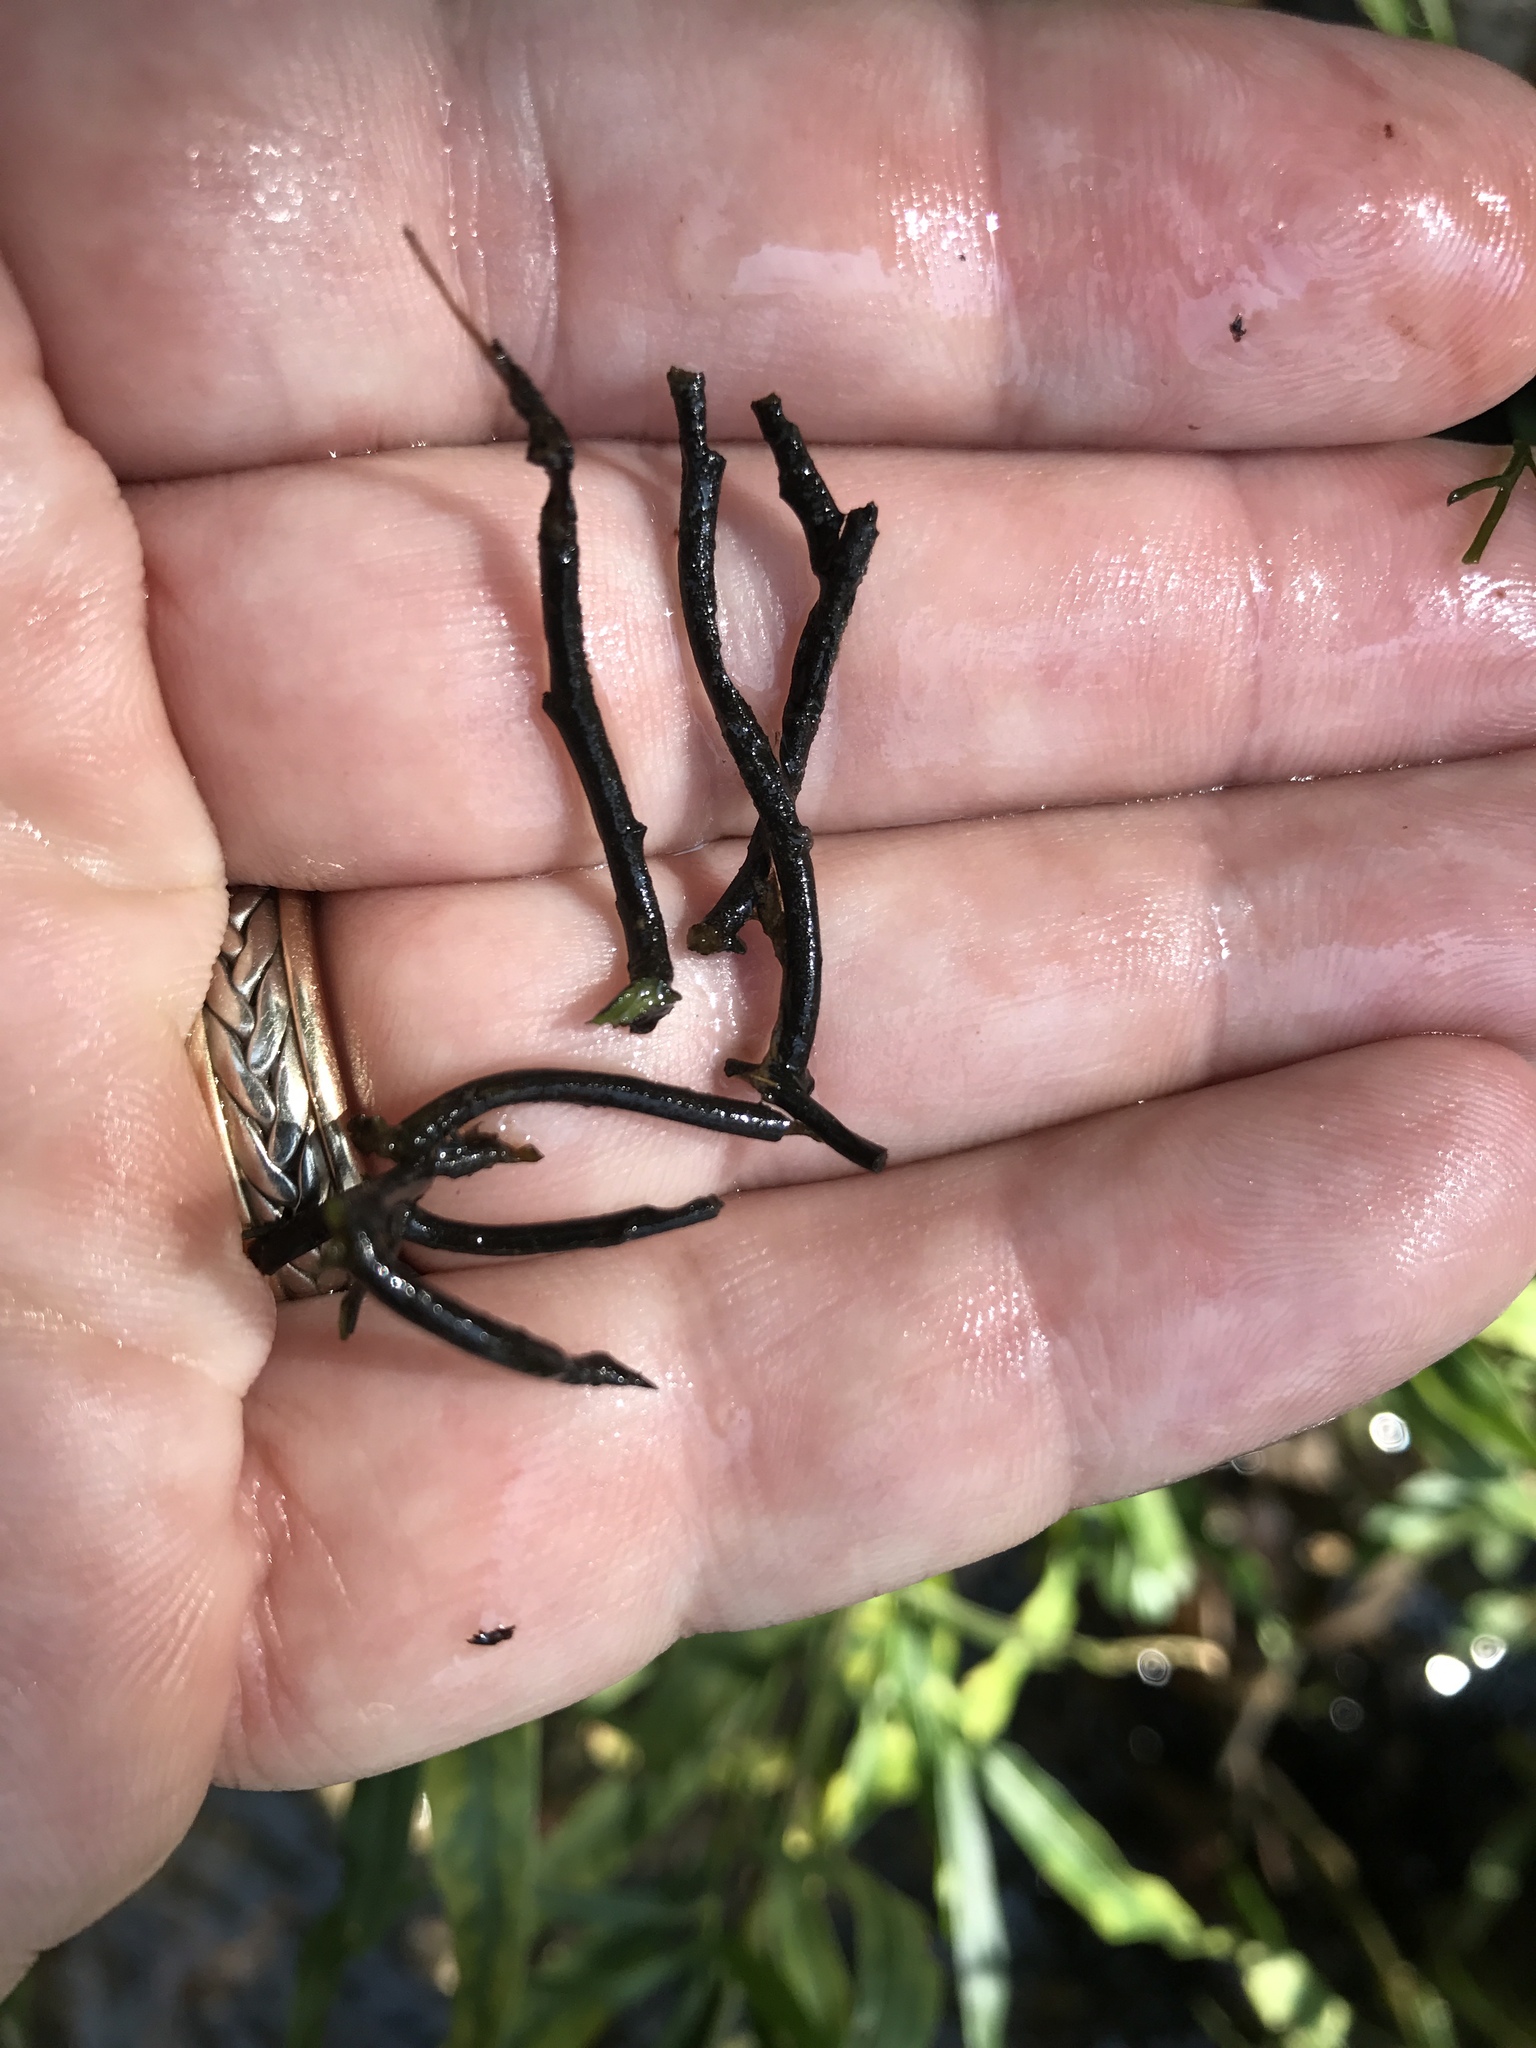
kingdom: Plantae
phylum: Tracheophyta
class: Magnoliopsida
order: Malpighiales
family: Podostemaceae
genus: Podostemum
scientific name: Podostemum ceratophyllum
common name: Horn-leaved riverweed
